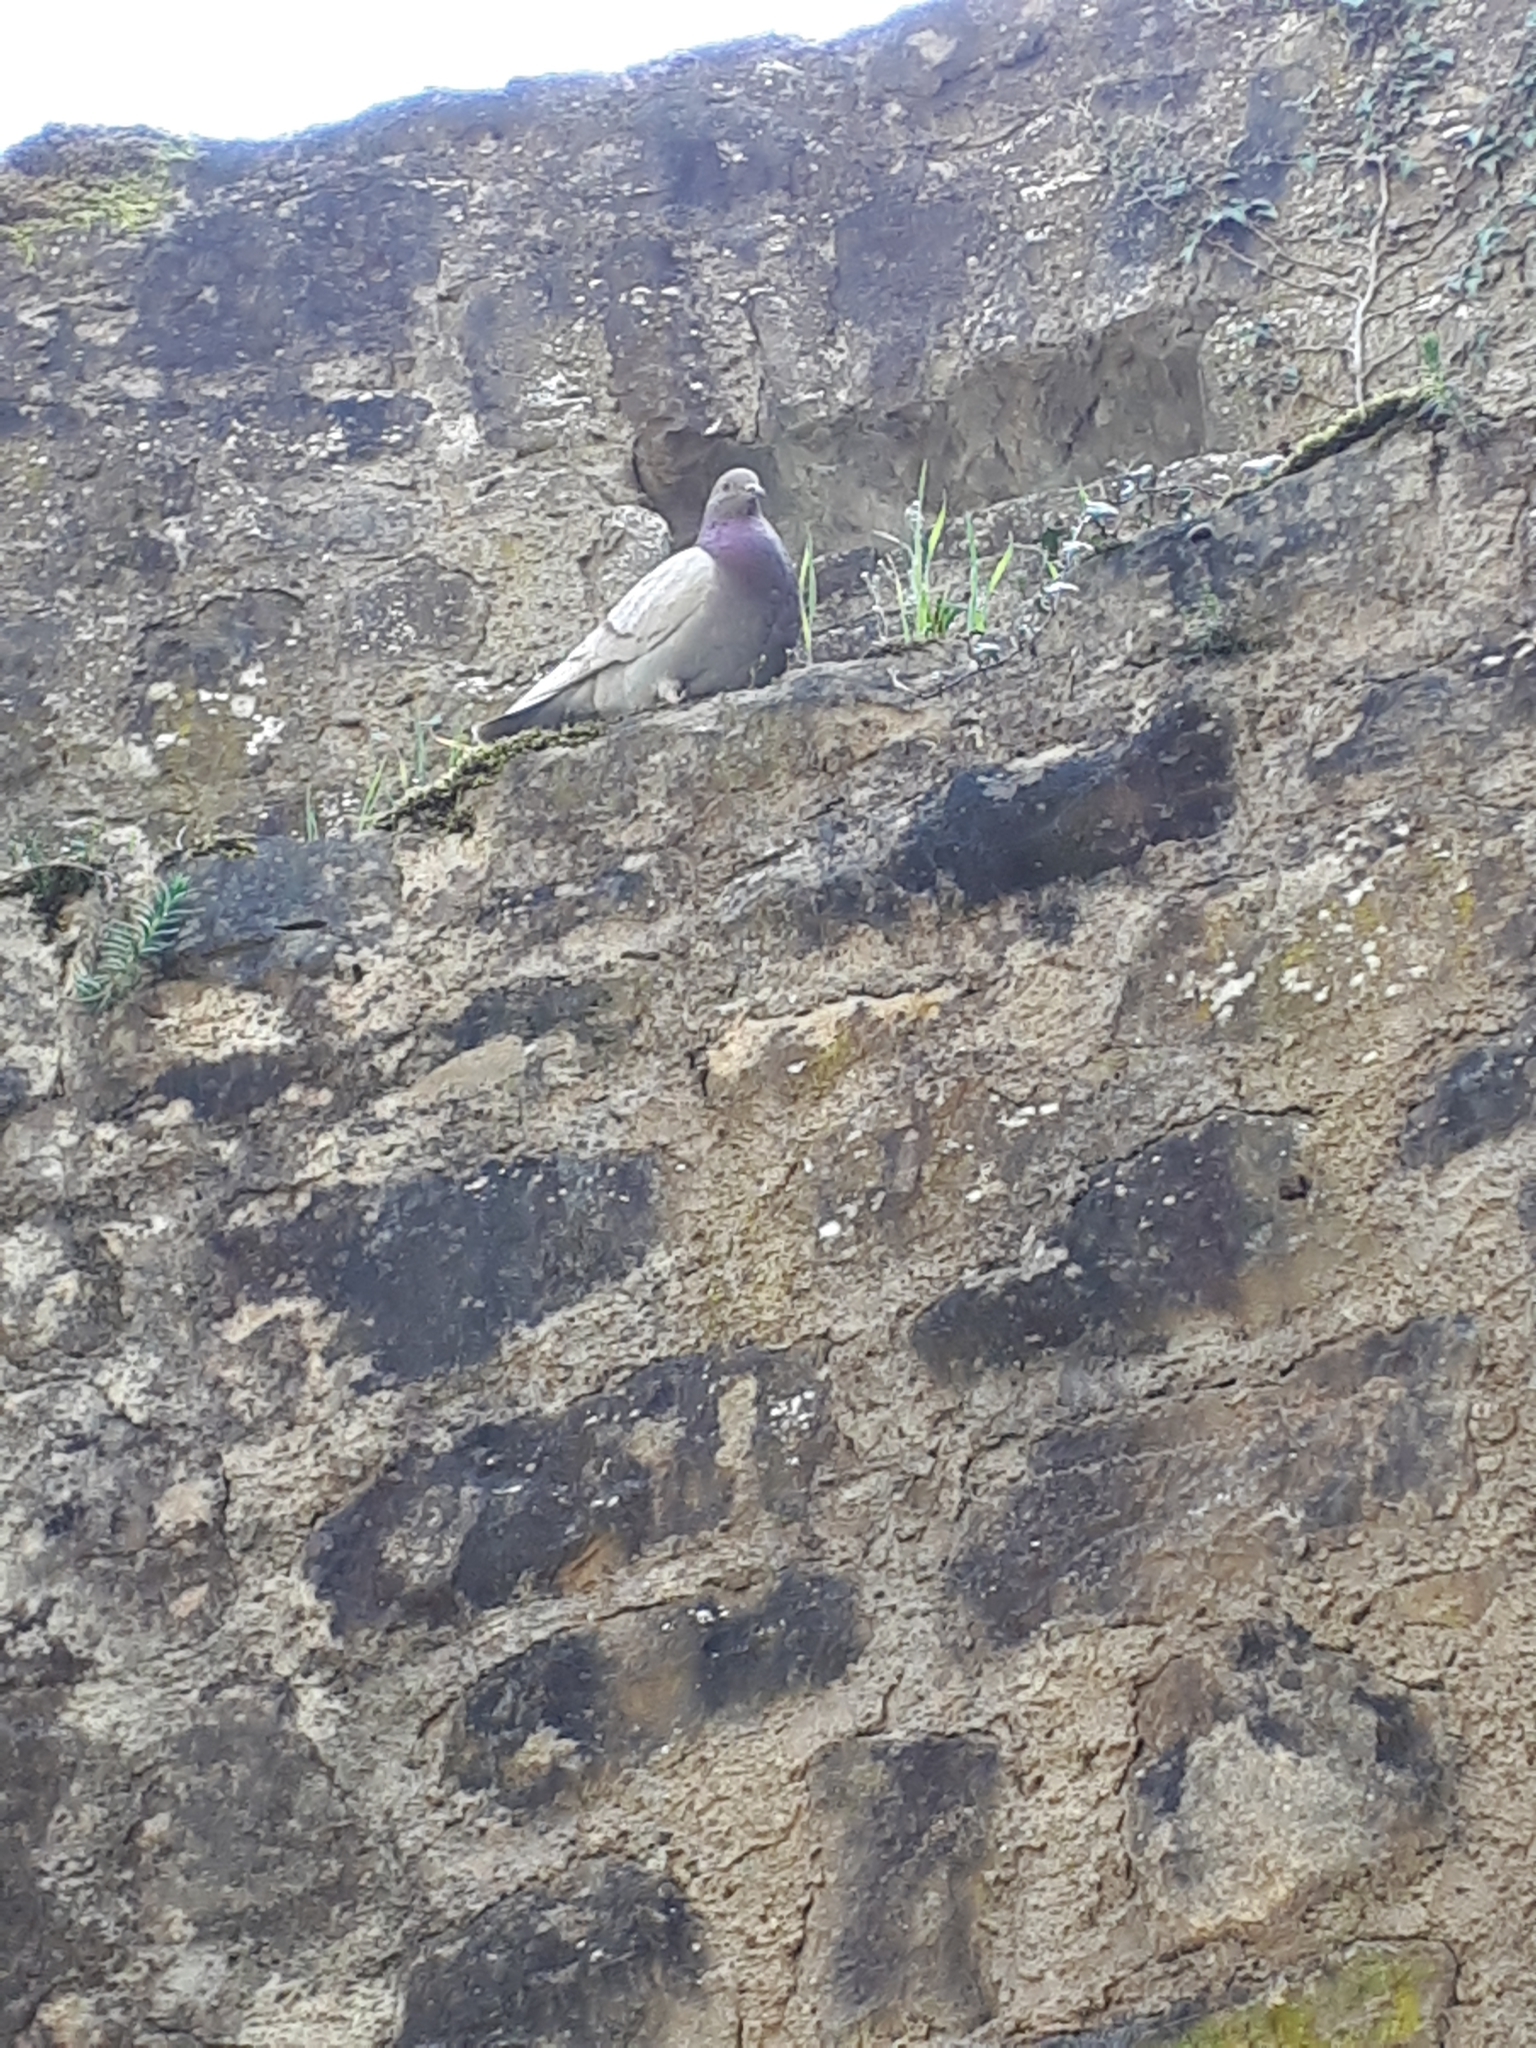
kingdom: Animalia
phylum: Chordata
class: Aves
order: Columbiformes
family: Columbidae
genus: Columba
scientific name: Columba livia
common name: Rock pigeon
